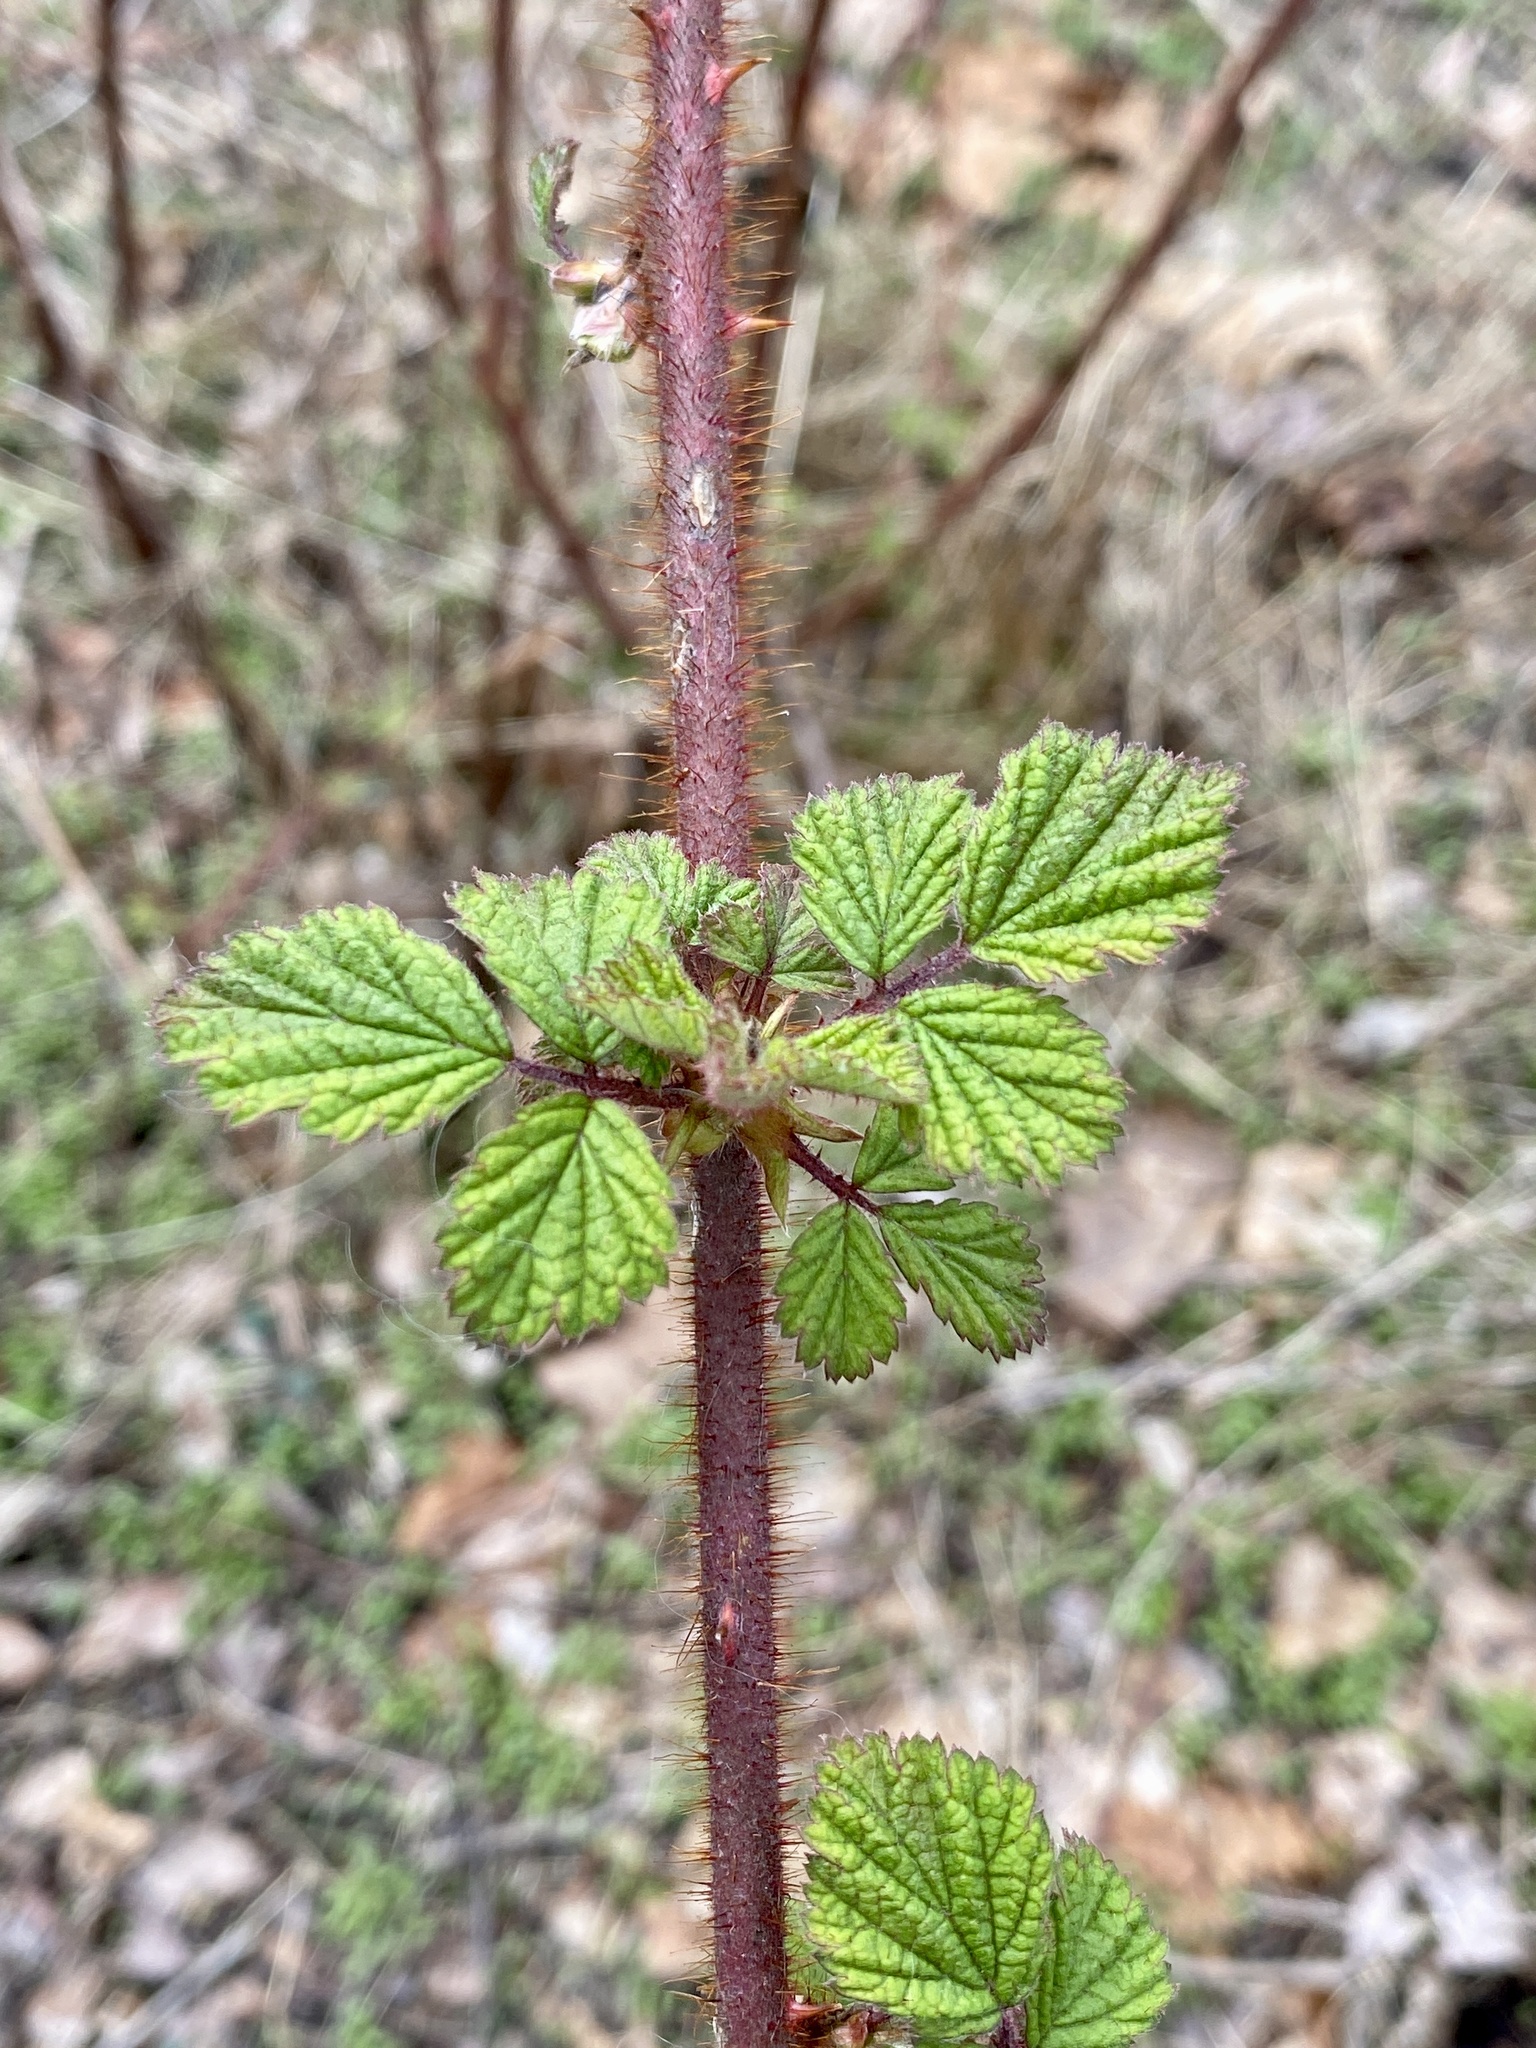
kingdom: Plantae
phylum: Tracheophyta
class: Magnoliopsida
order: Rosales
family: Rosaceae
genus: Rubus
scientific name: Rubus phoenicolasius
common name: Japanese wineberry
